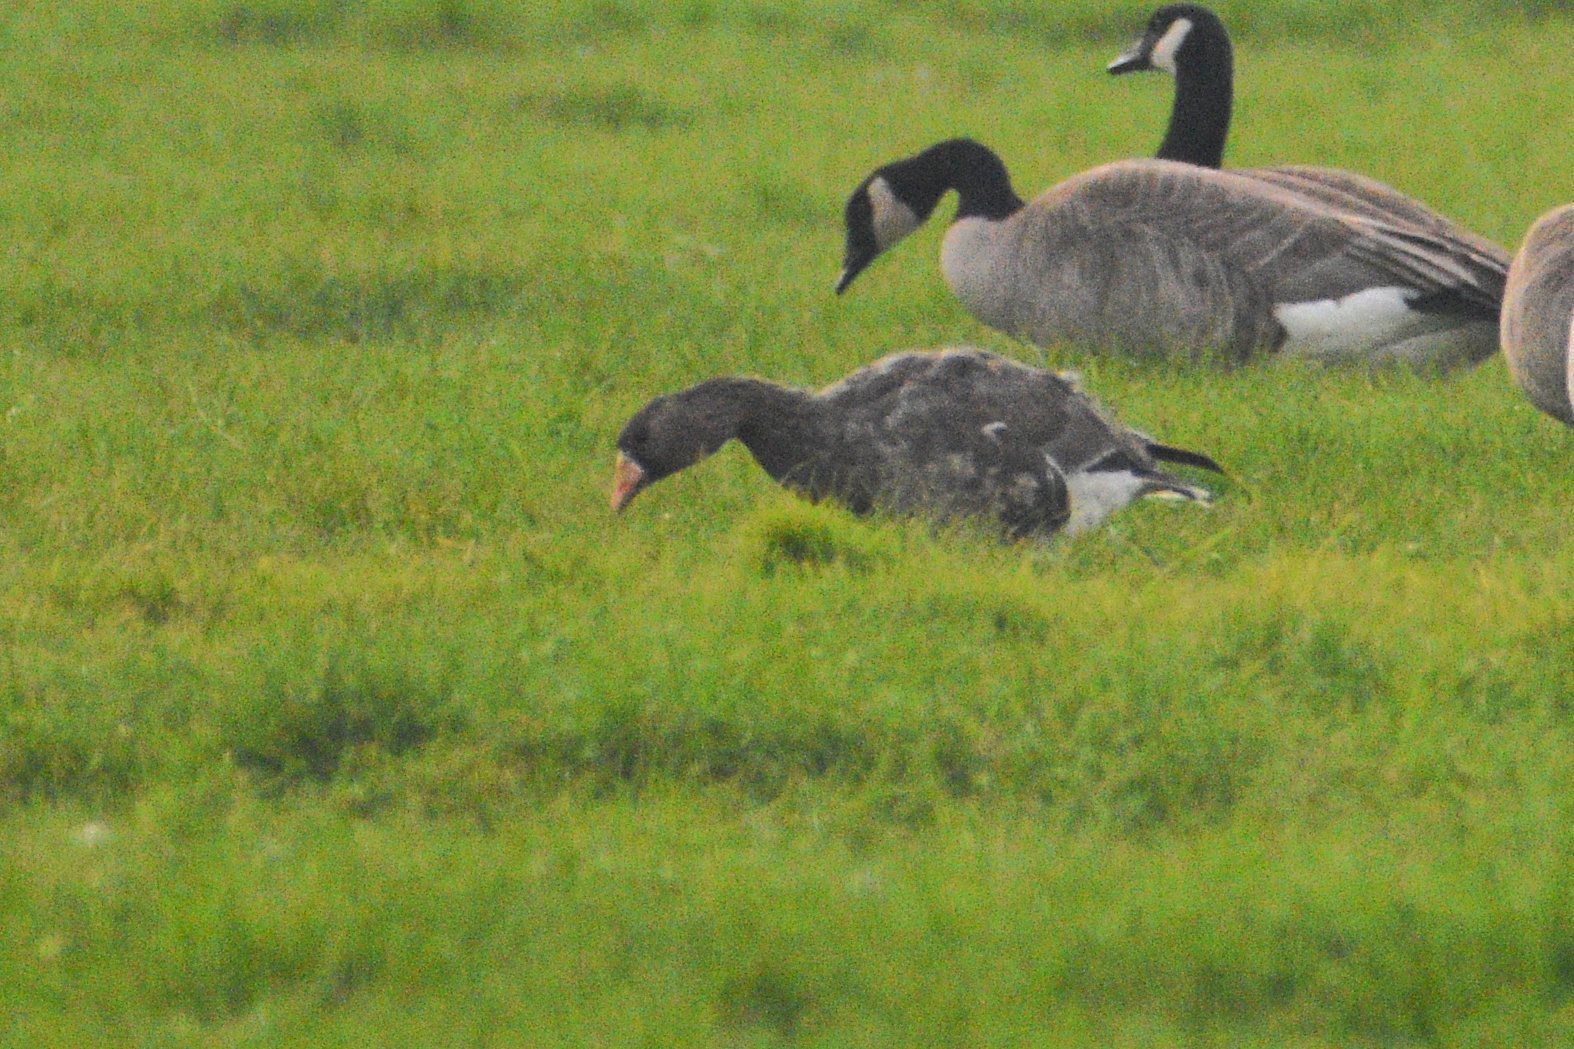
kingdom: Animalia
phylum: Chordata
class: Aves
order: Anseriformes
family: Anatidae
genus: Anser
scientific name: Anser albifrons
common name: Greater white-fronted goose
